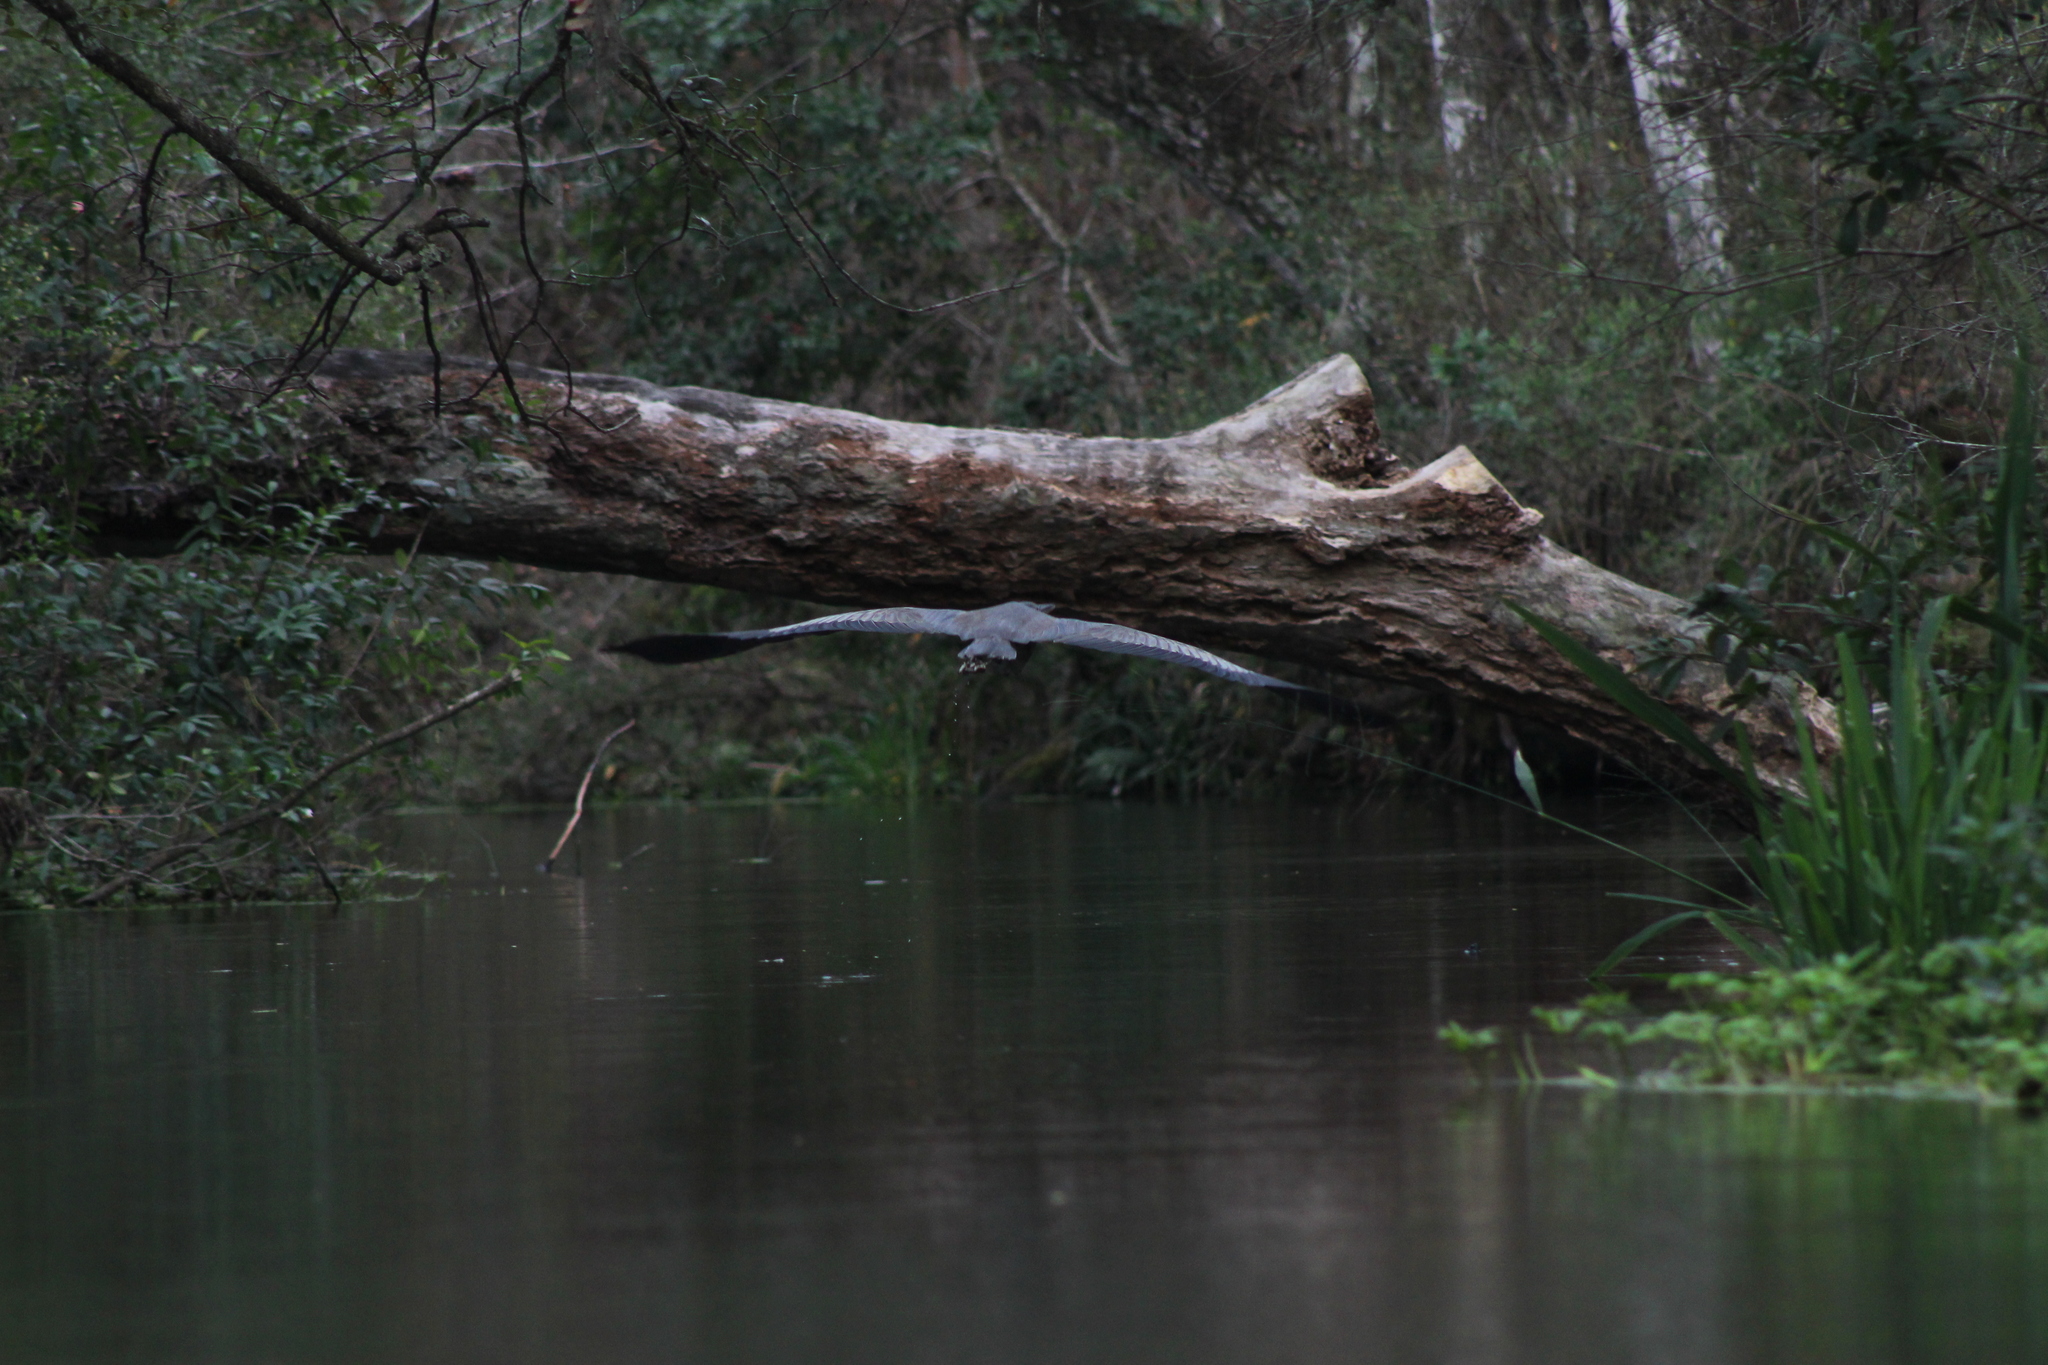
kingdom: Animalia
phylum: Chordata
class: Aves
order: Pelecaniformes
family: Ardeidae
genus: Ardea
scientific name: Ardea herodias
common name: Great blue heron
